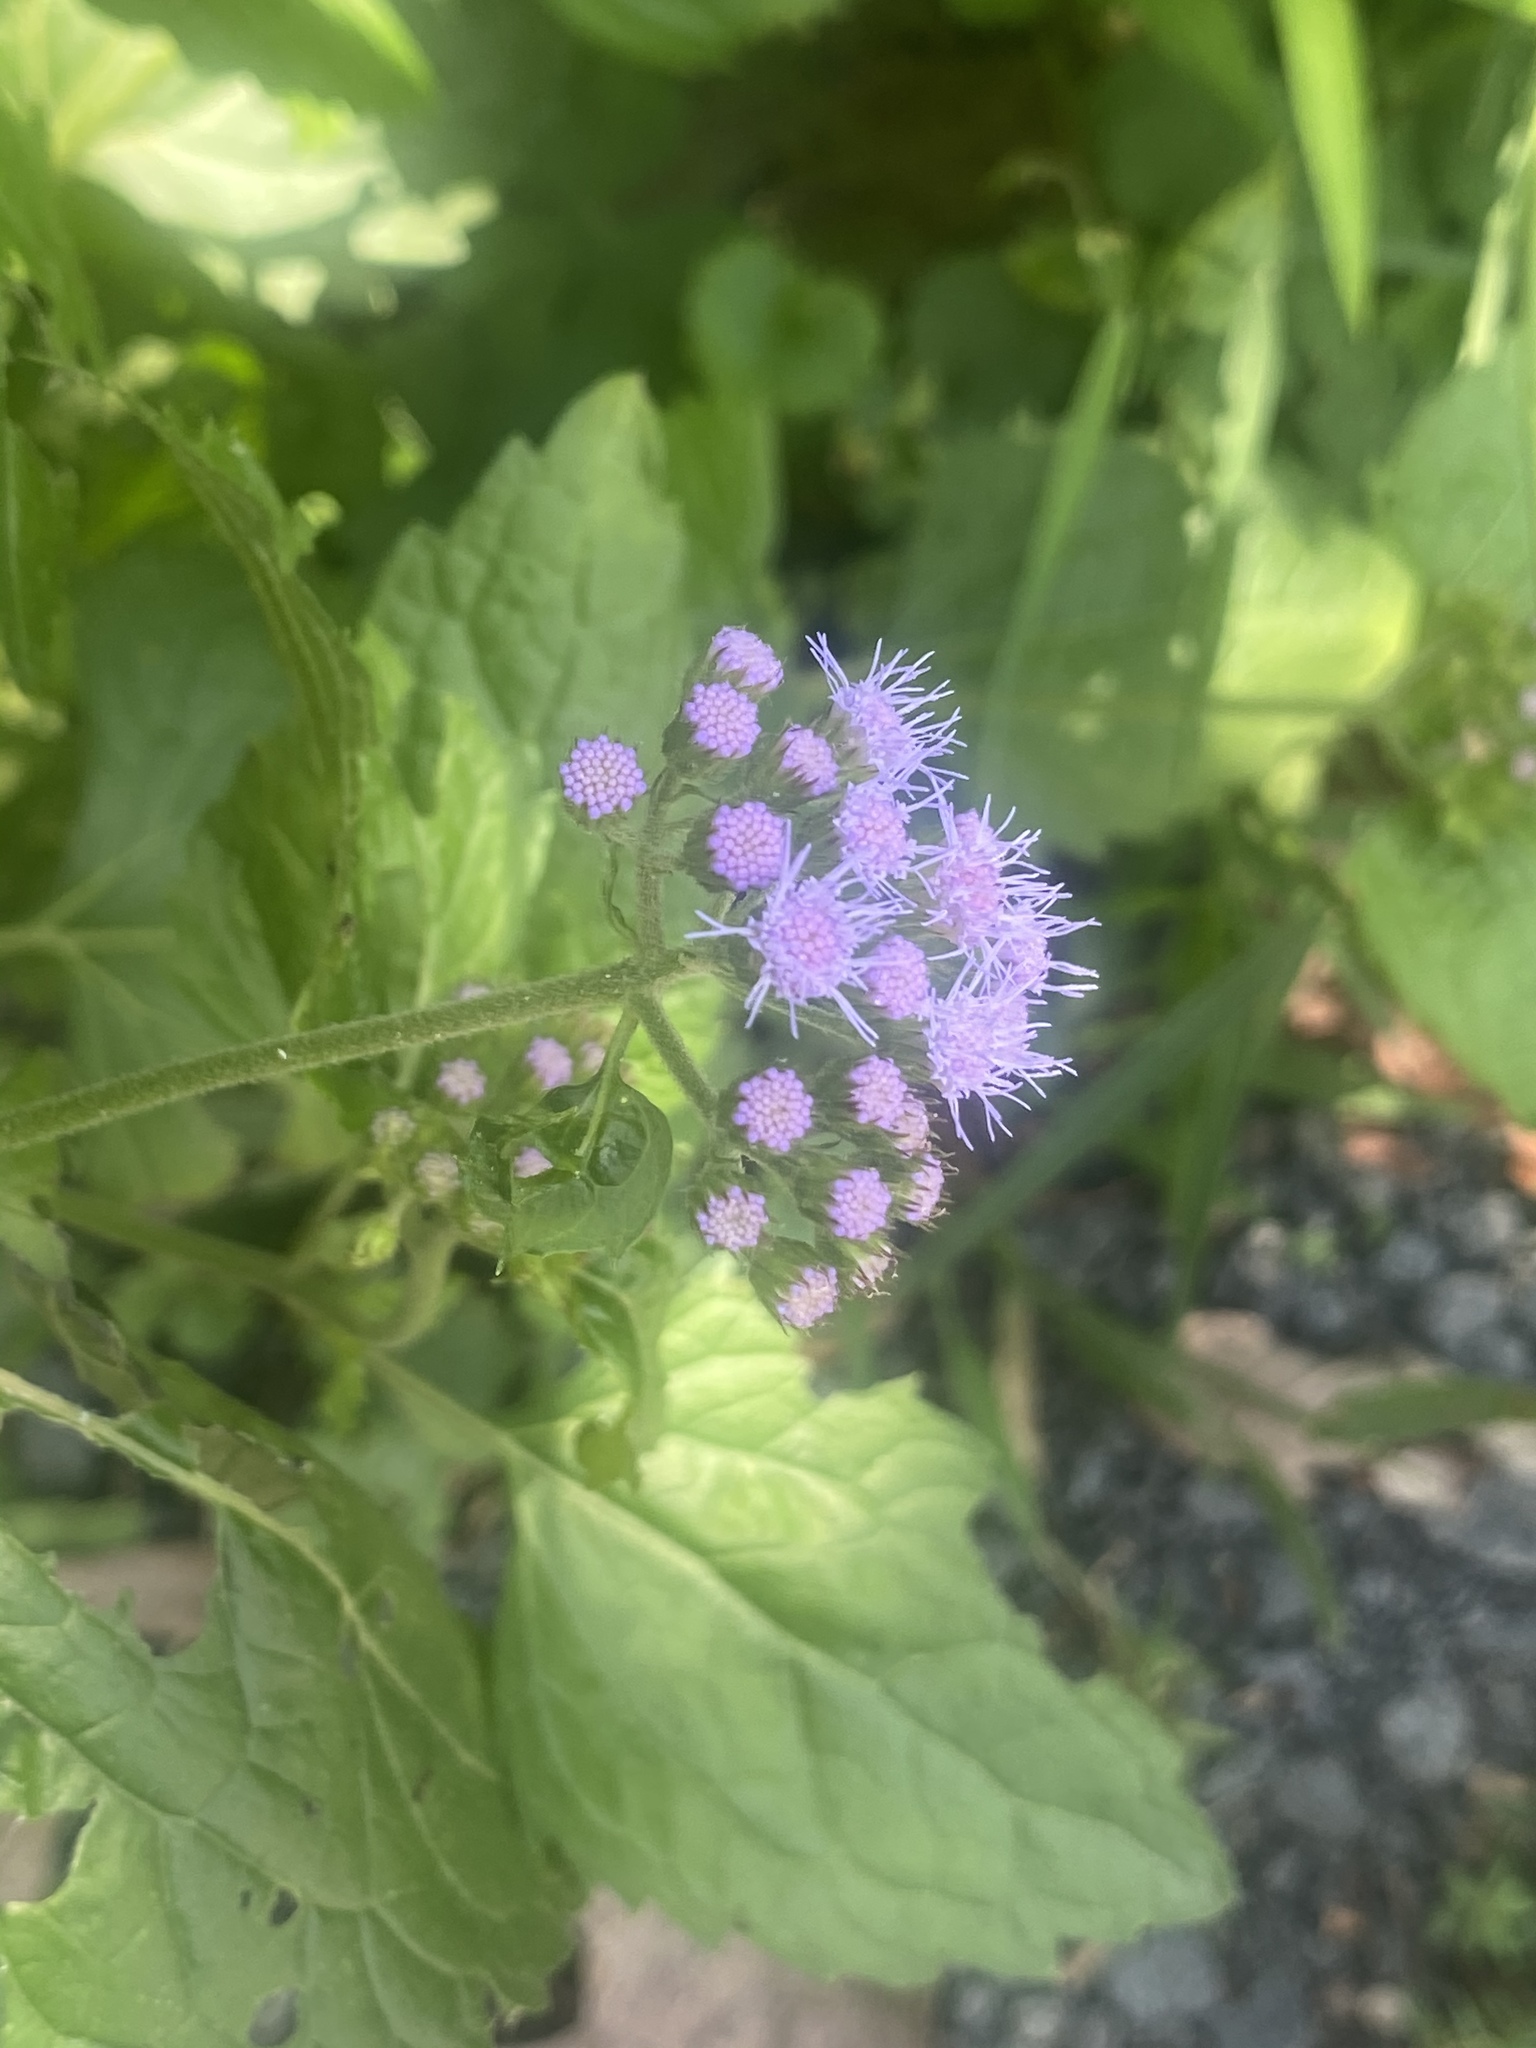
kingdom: Plantae
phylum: Tracheophyta
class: Magnoliopsida
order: Asterales
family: Asteraceae
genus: Conoclinium
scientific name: Conoclinium coelestinum
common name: Blue mistflower
